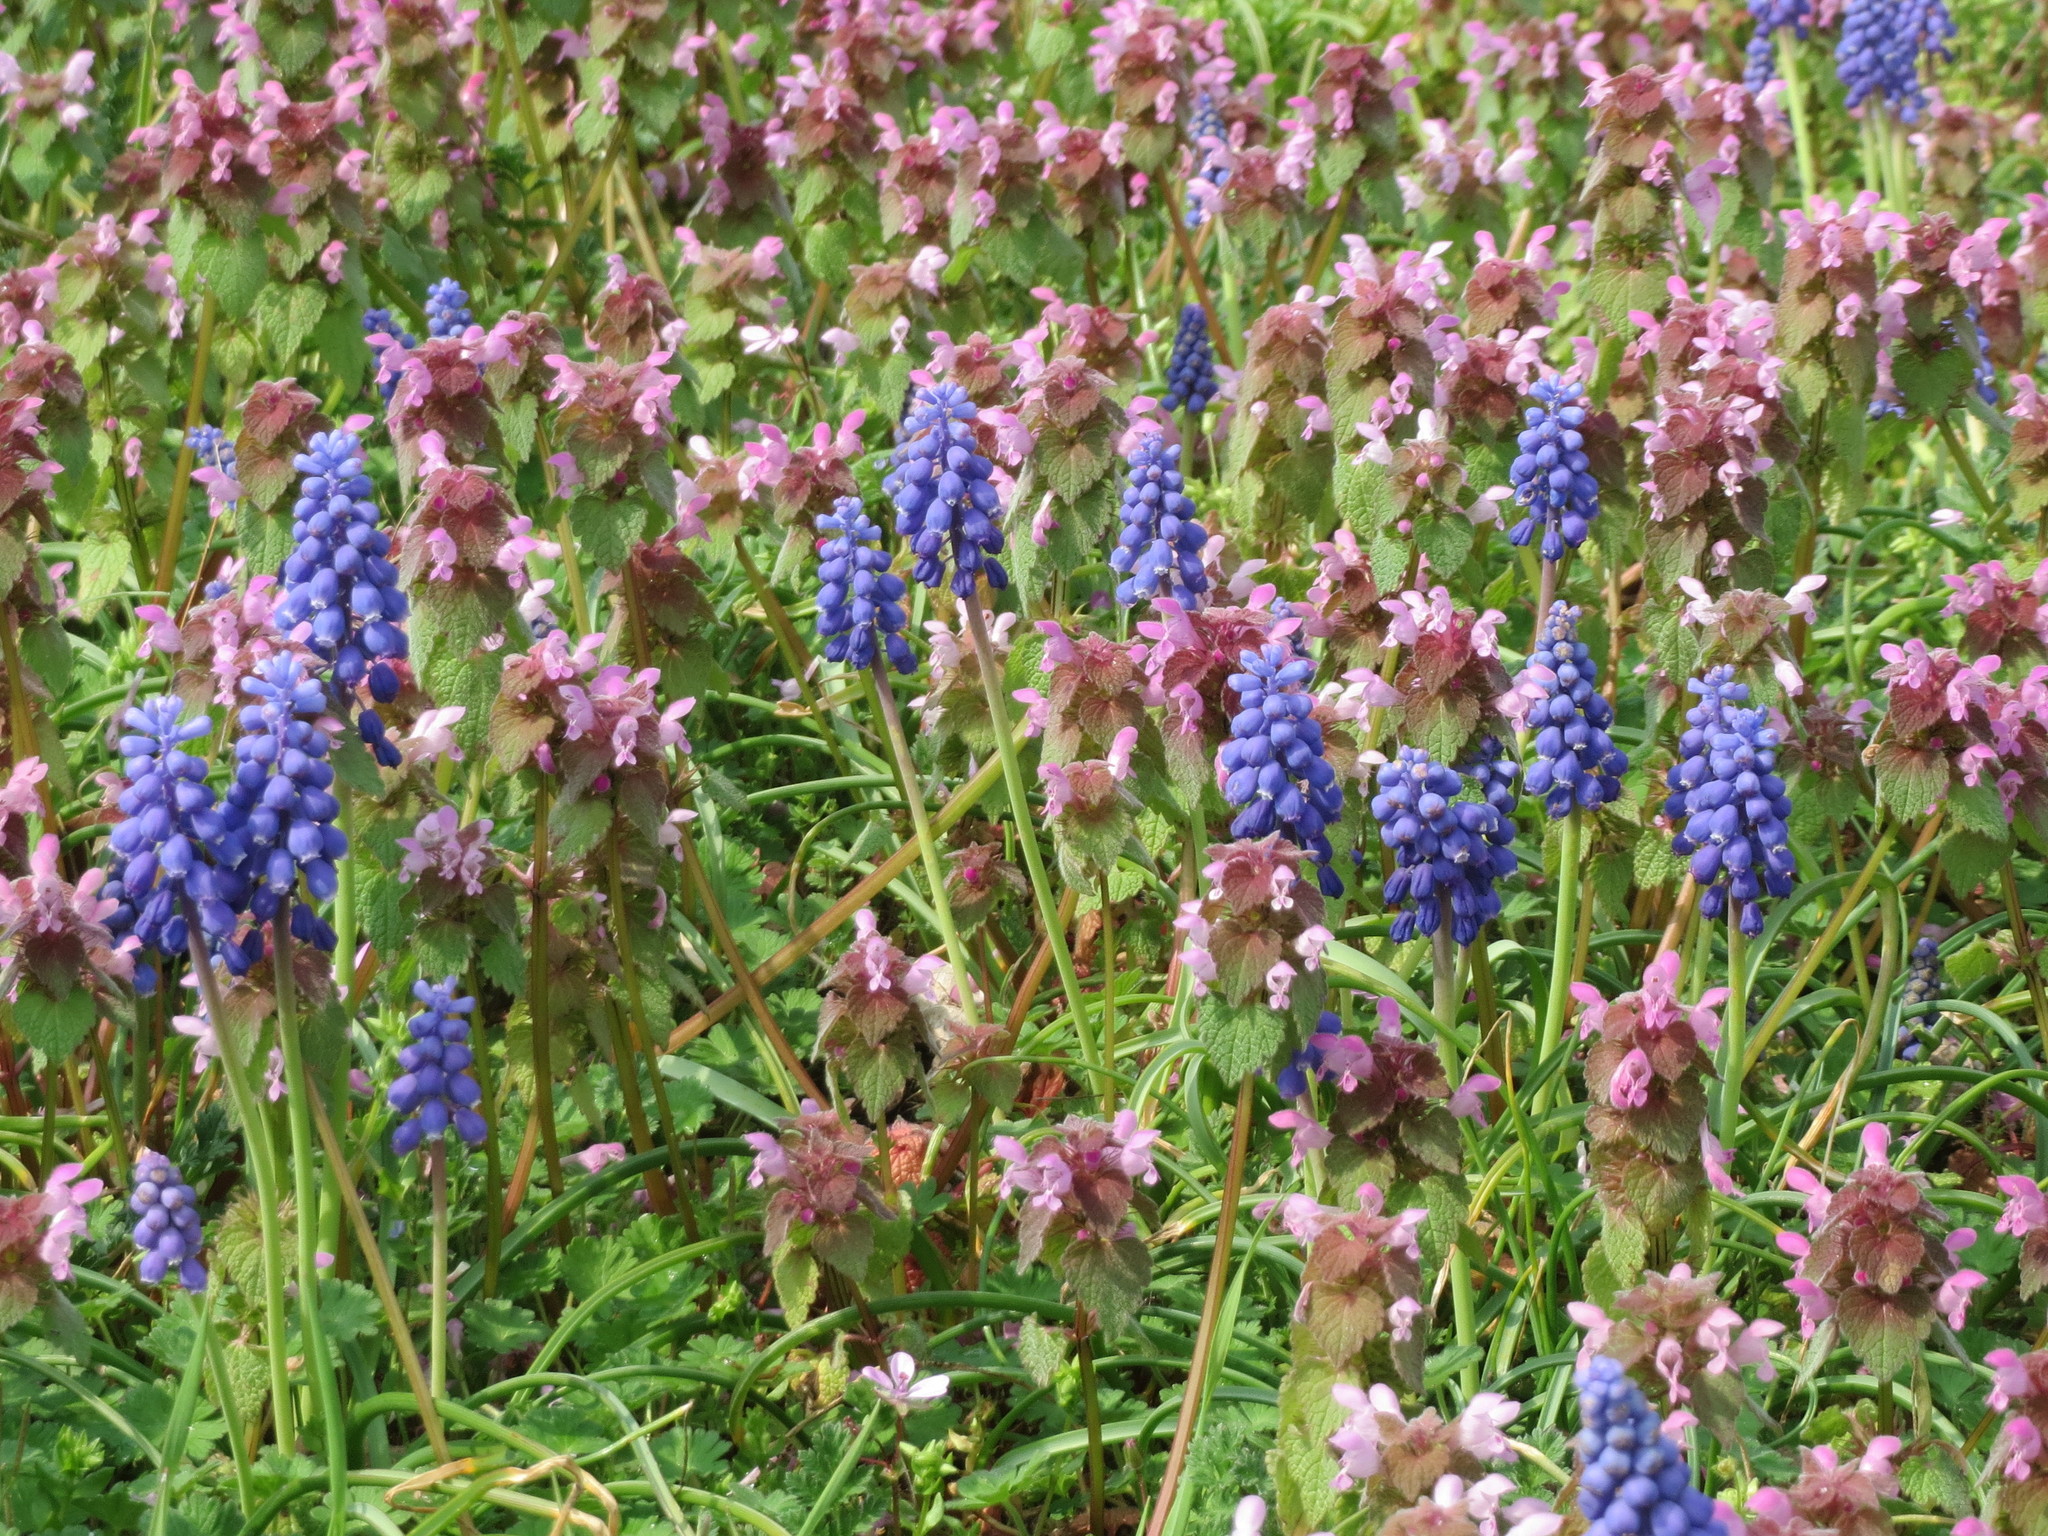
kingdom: Plantae
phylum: Tracheophyta
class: Magnoliopsida
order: Lamiales
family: Lamiaceae
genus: Lamium
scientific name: Lamium purpureum
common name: Red dead-nettle
